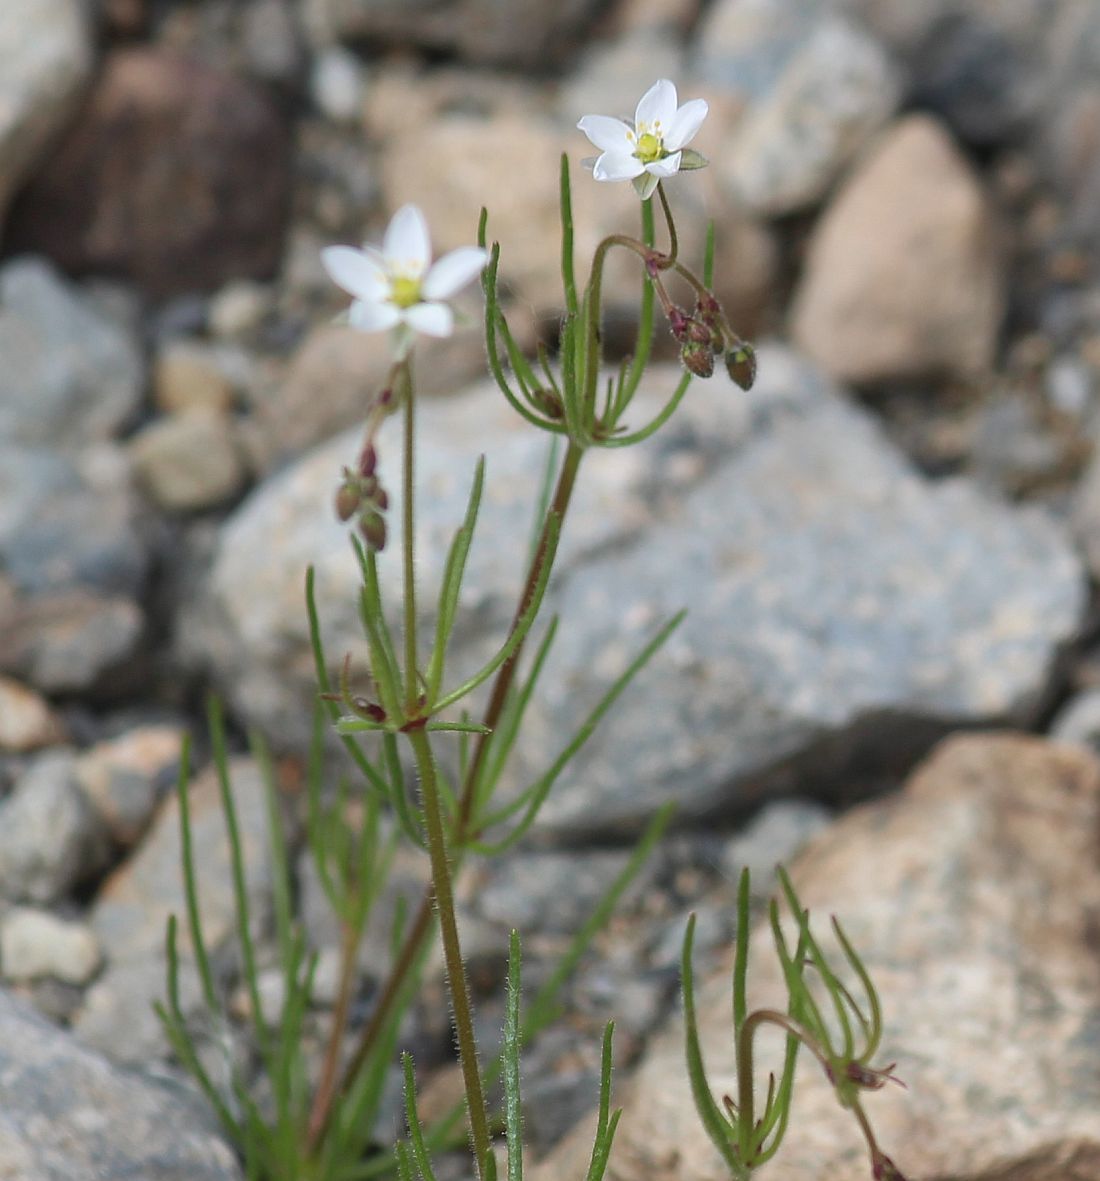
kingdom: Plantae
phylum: Tracheophyta
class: Magnoliopsida
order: Caryophyllales
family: Caryophyllaceae
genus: Spergula
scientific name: Spergula arvensis
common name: Corn spurrey
